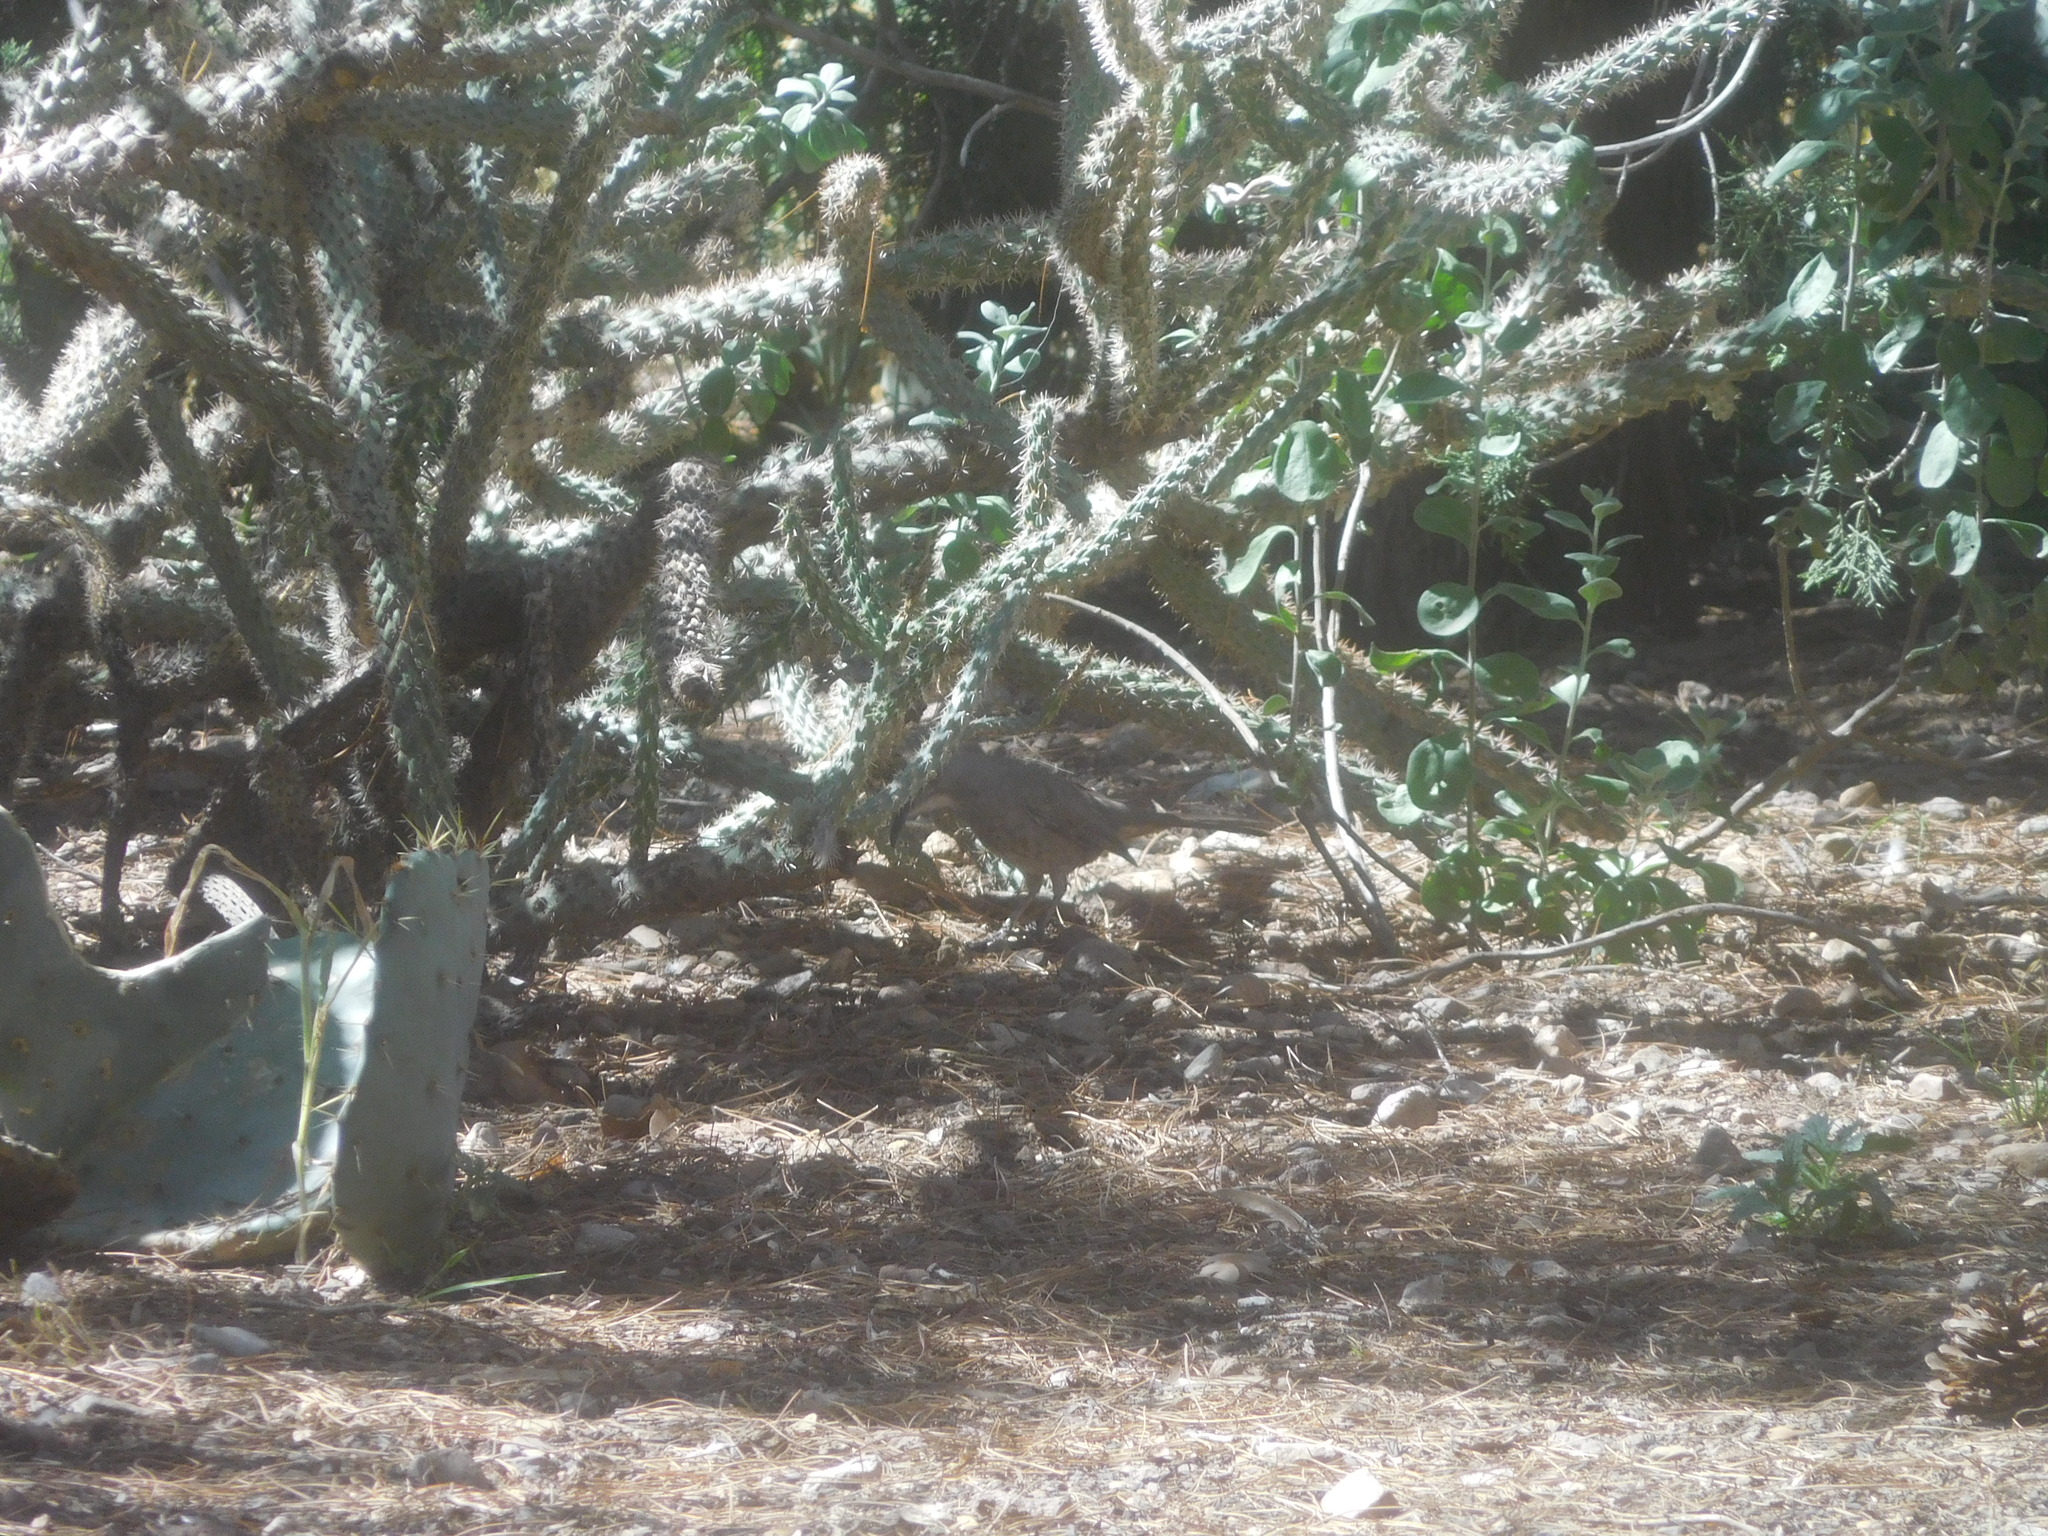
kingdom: Animalia
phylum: Chordata
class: Aves
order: Passeriformes
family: Mimidae
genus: Toxostoma
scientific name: Toxostoma curvirostre
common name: Curve-billed thrasher
